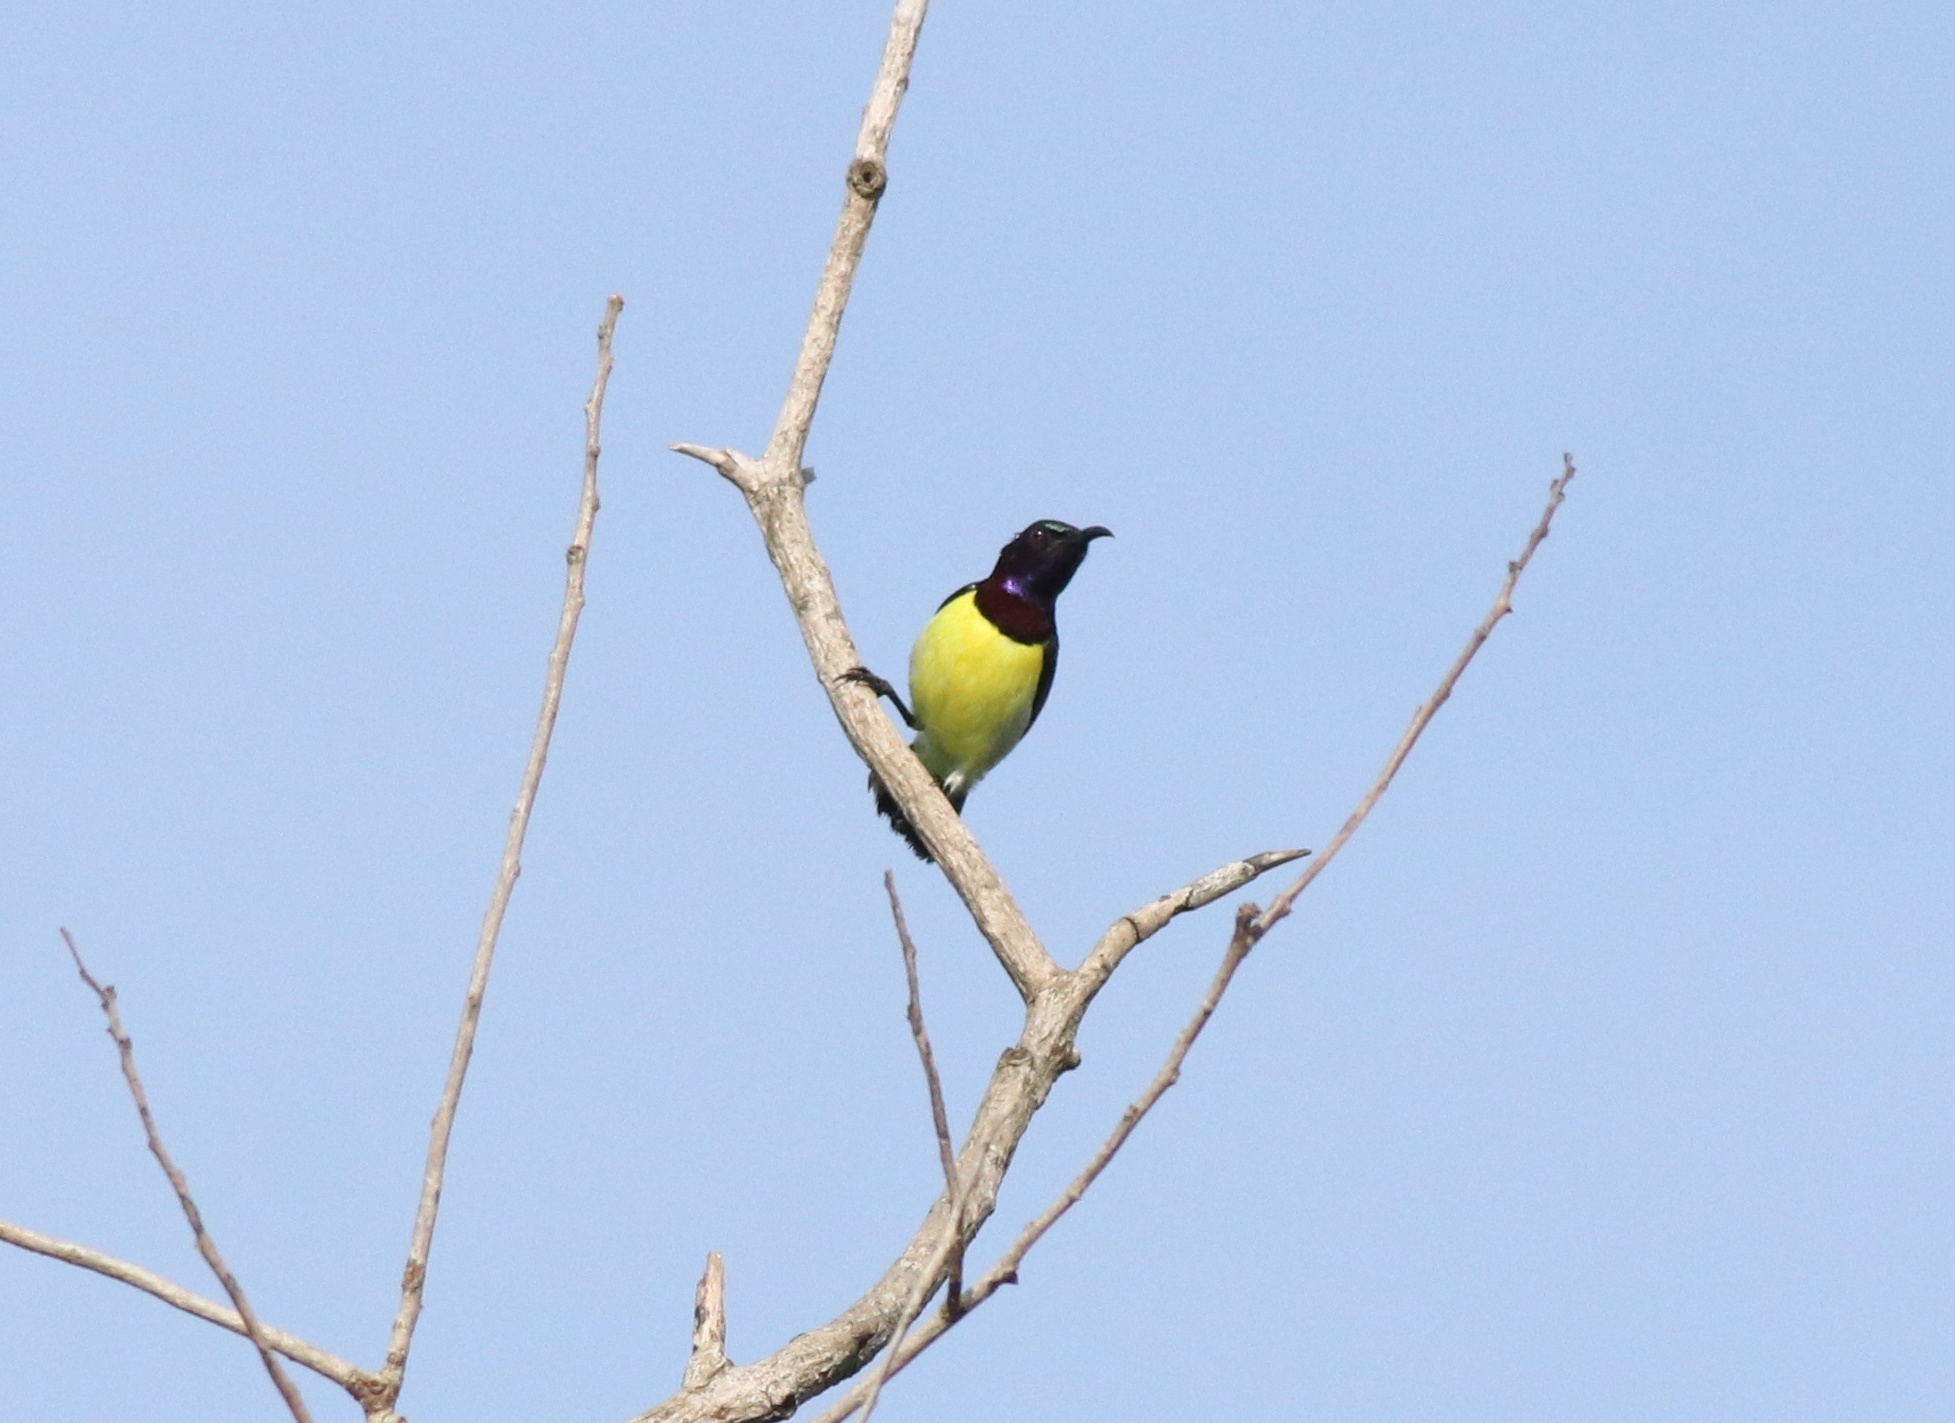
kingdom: Animalia
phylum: Chordata
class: Aves
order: Passeriformes
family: Nectariniidae
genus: Leptocoma
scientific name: Leptocoma zeylonica
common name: Purple-rumped sunbird
